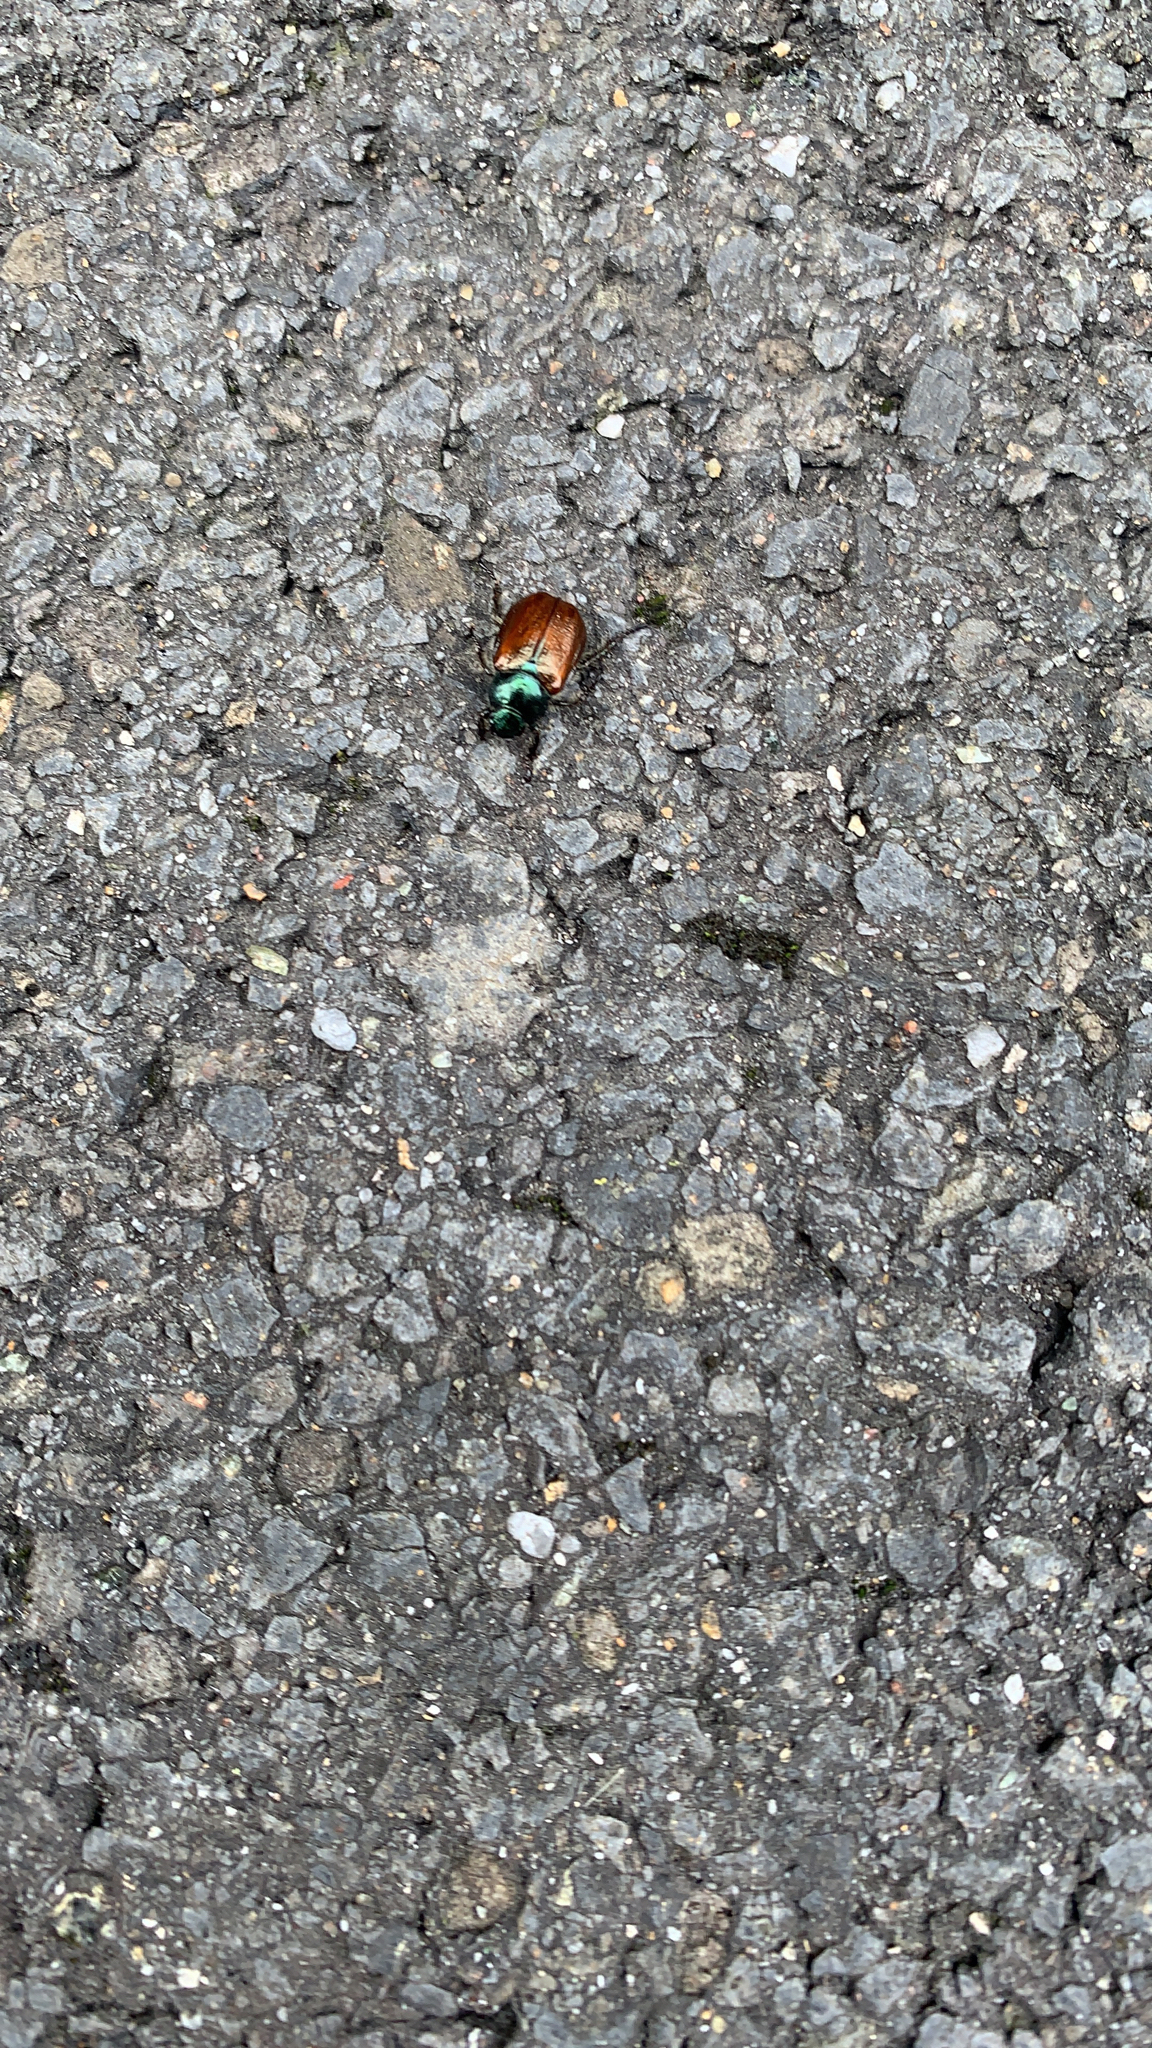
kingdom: Animalia
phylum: Arthropoda
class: Insecta
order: Coleoptera
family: Scarabaeidae
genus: Phyllopertha
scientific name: Phyllopertha horticola
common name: Garden chafer
